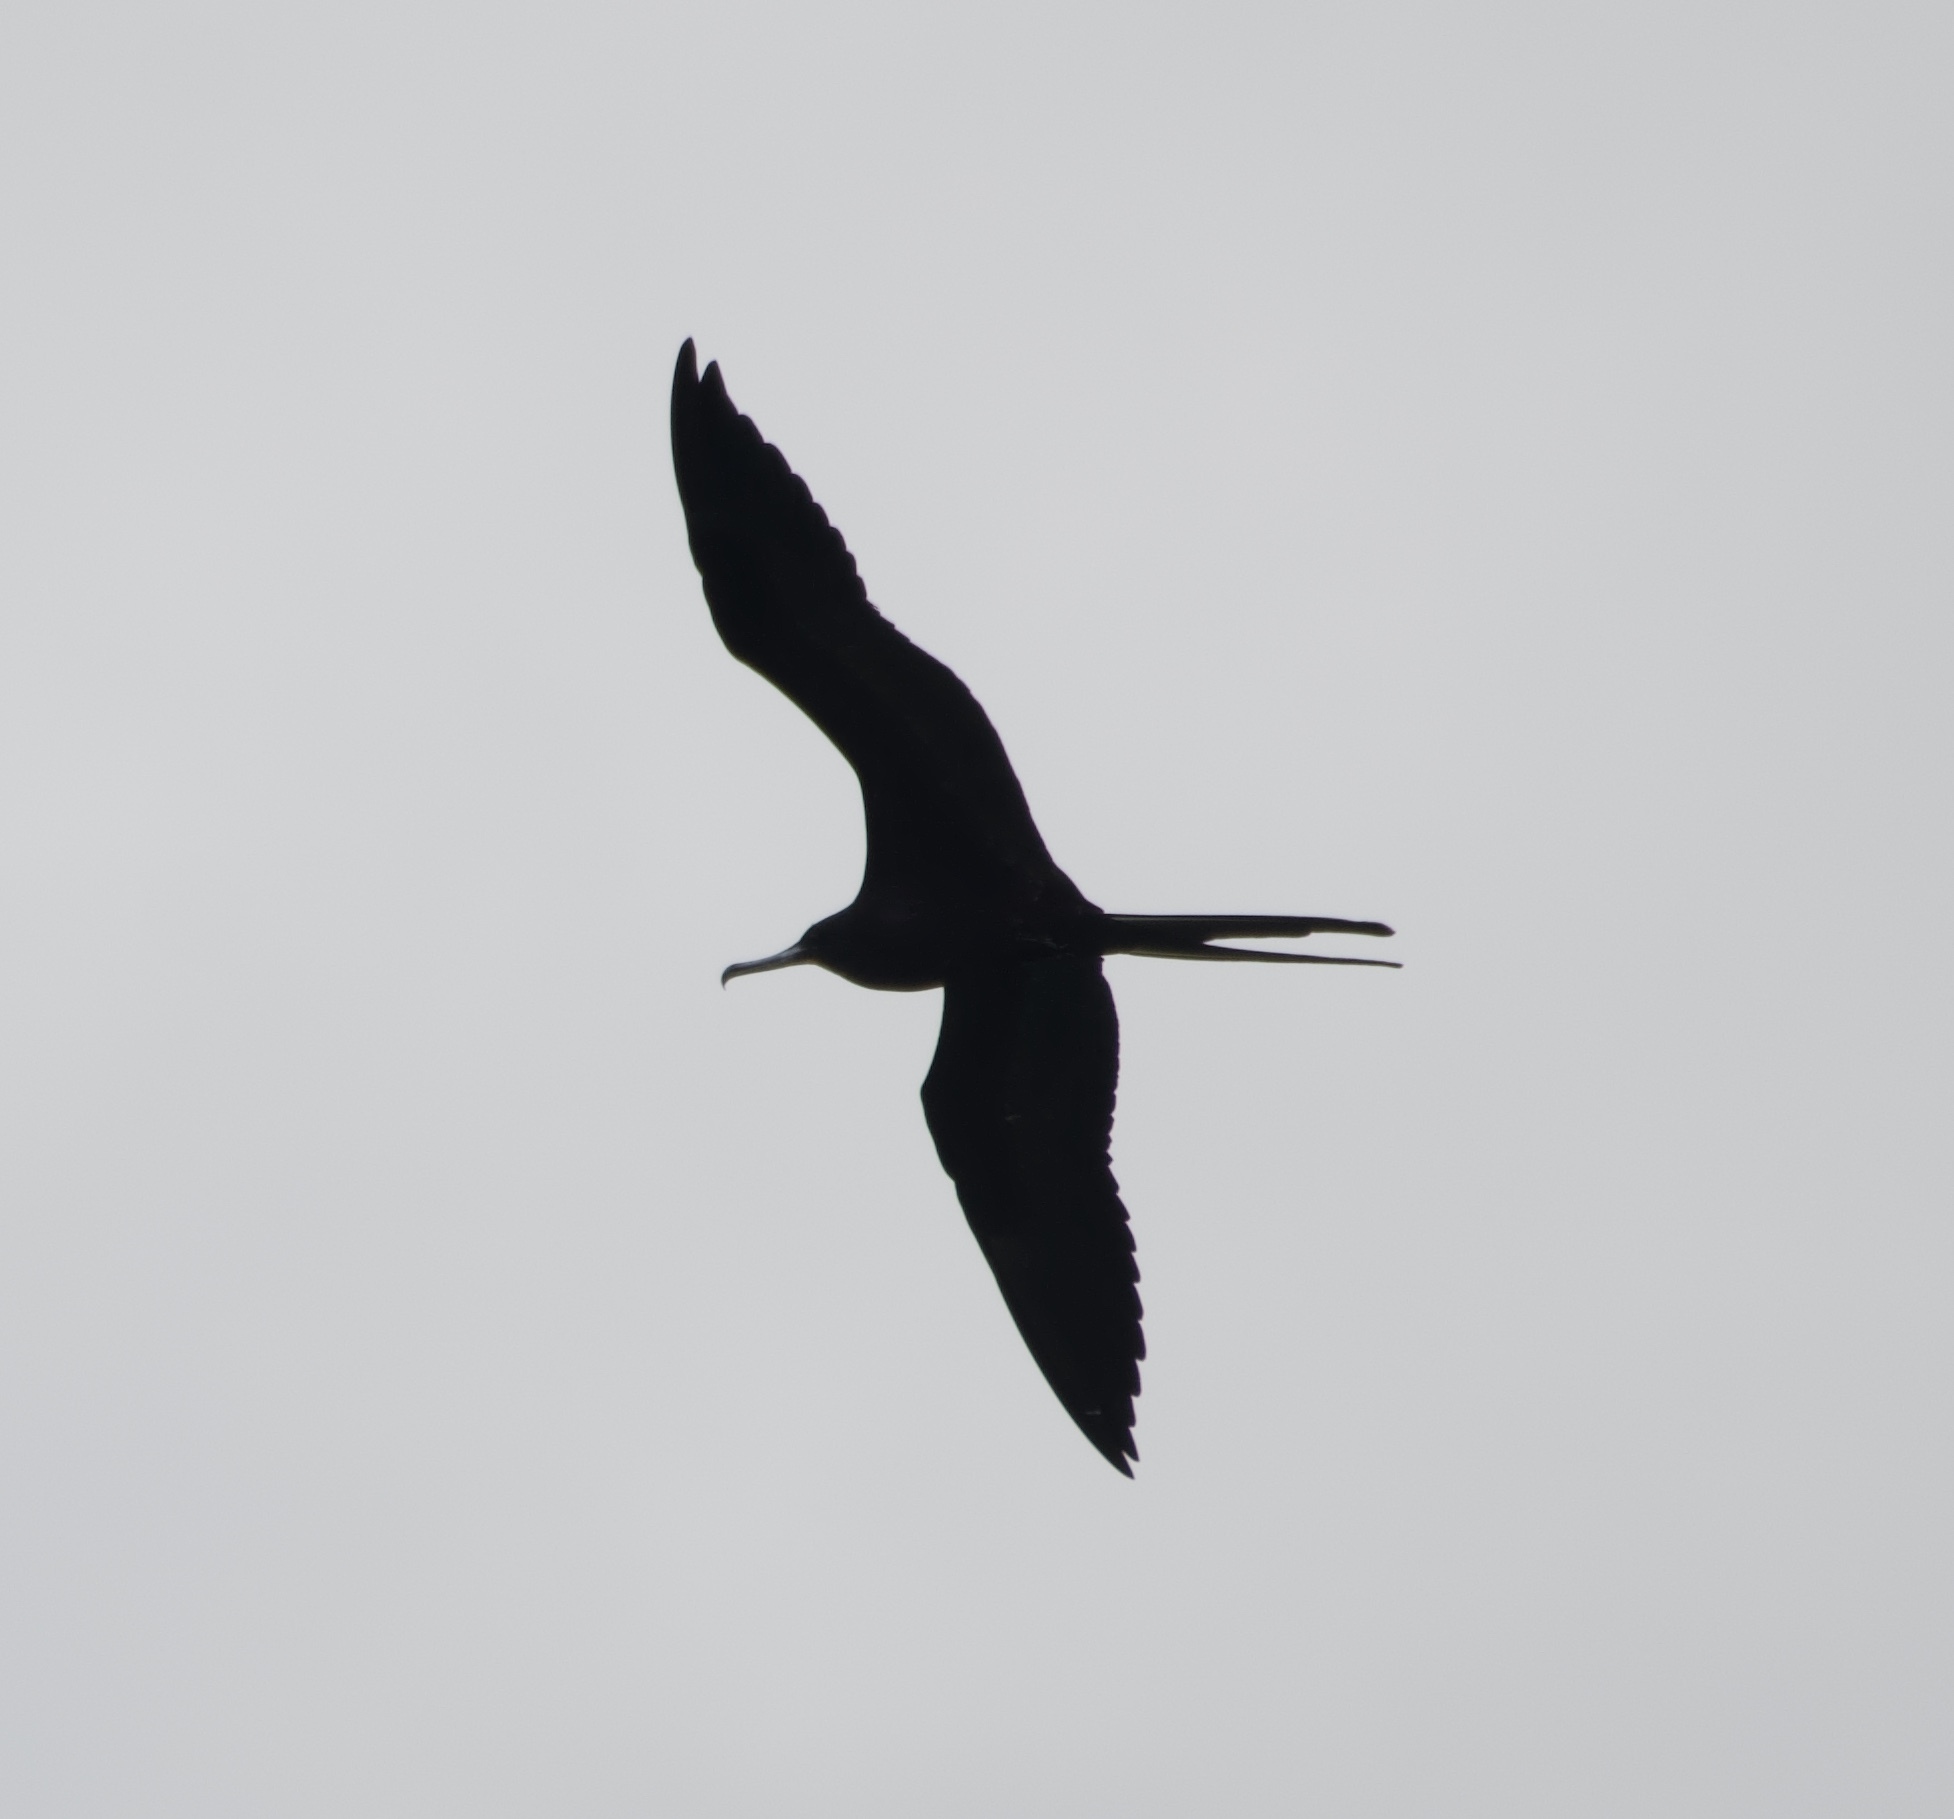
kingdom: Animalia
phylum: Chordata
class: Aves
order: Suliformes
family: Fregatidae
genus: Fregata
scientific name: Fregata magnificens
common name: Magnificent frigatebird
